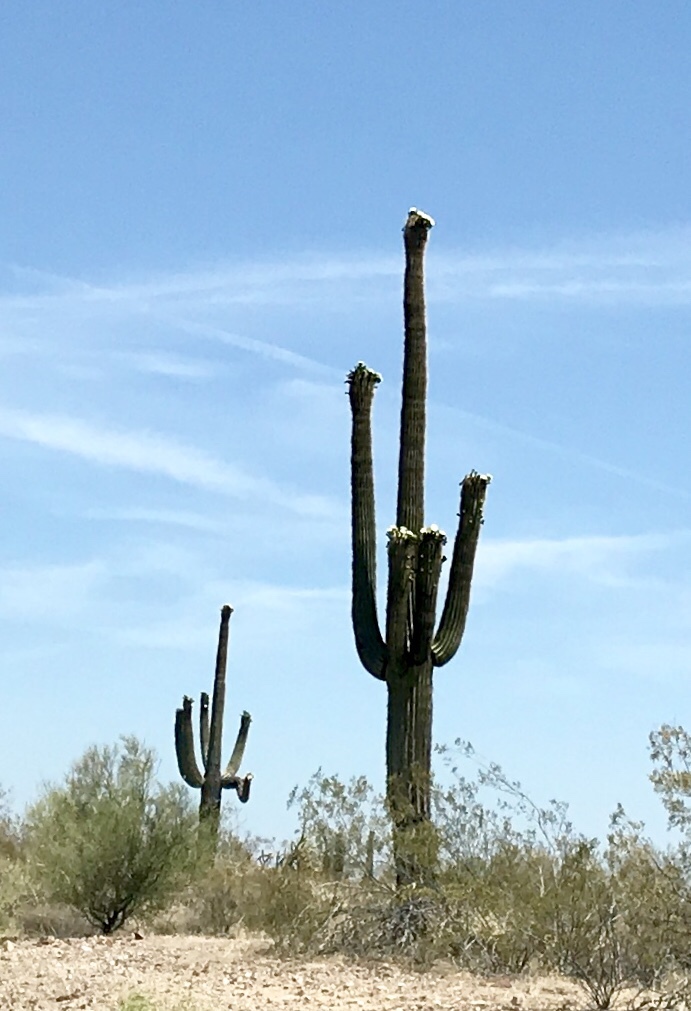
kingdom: Plantae
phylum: Tracheophyta
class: Magnoliopsida
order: Caryophyllales
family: Cactaceae
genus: Carnegiea
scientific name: Carnegiea gigantea
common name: Saguaro
